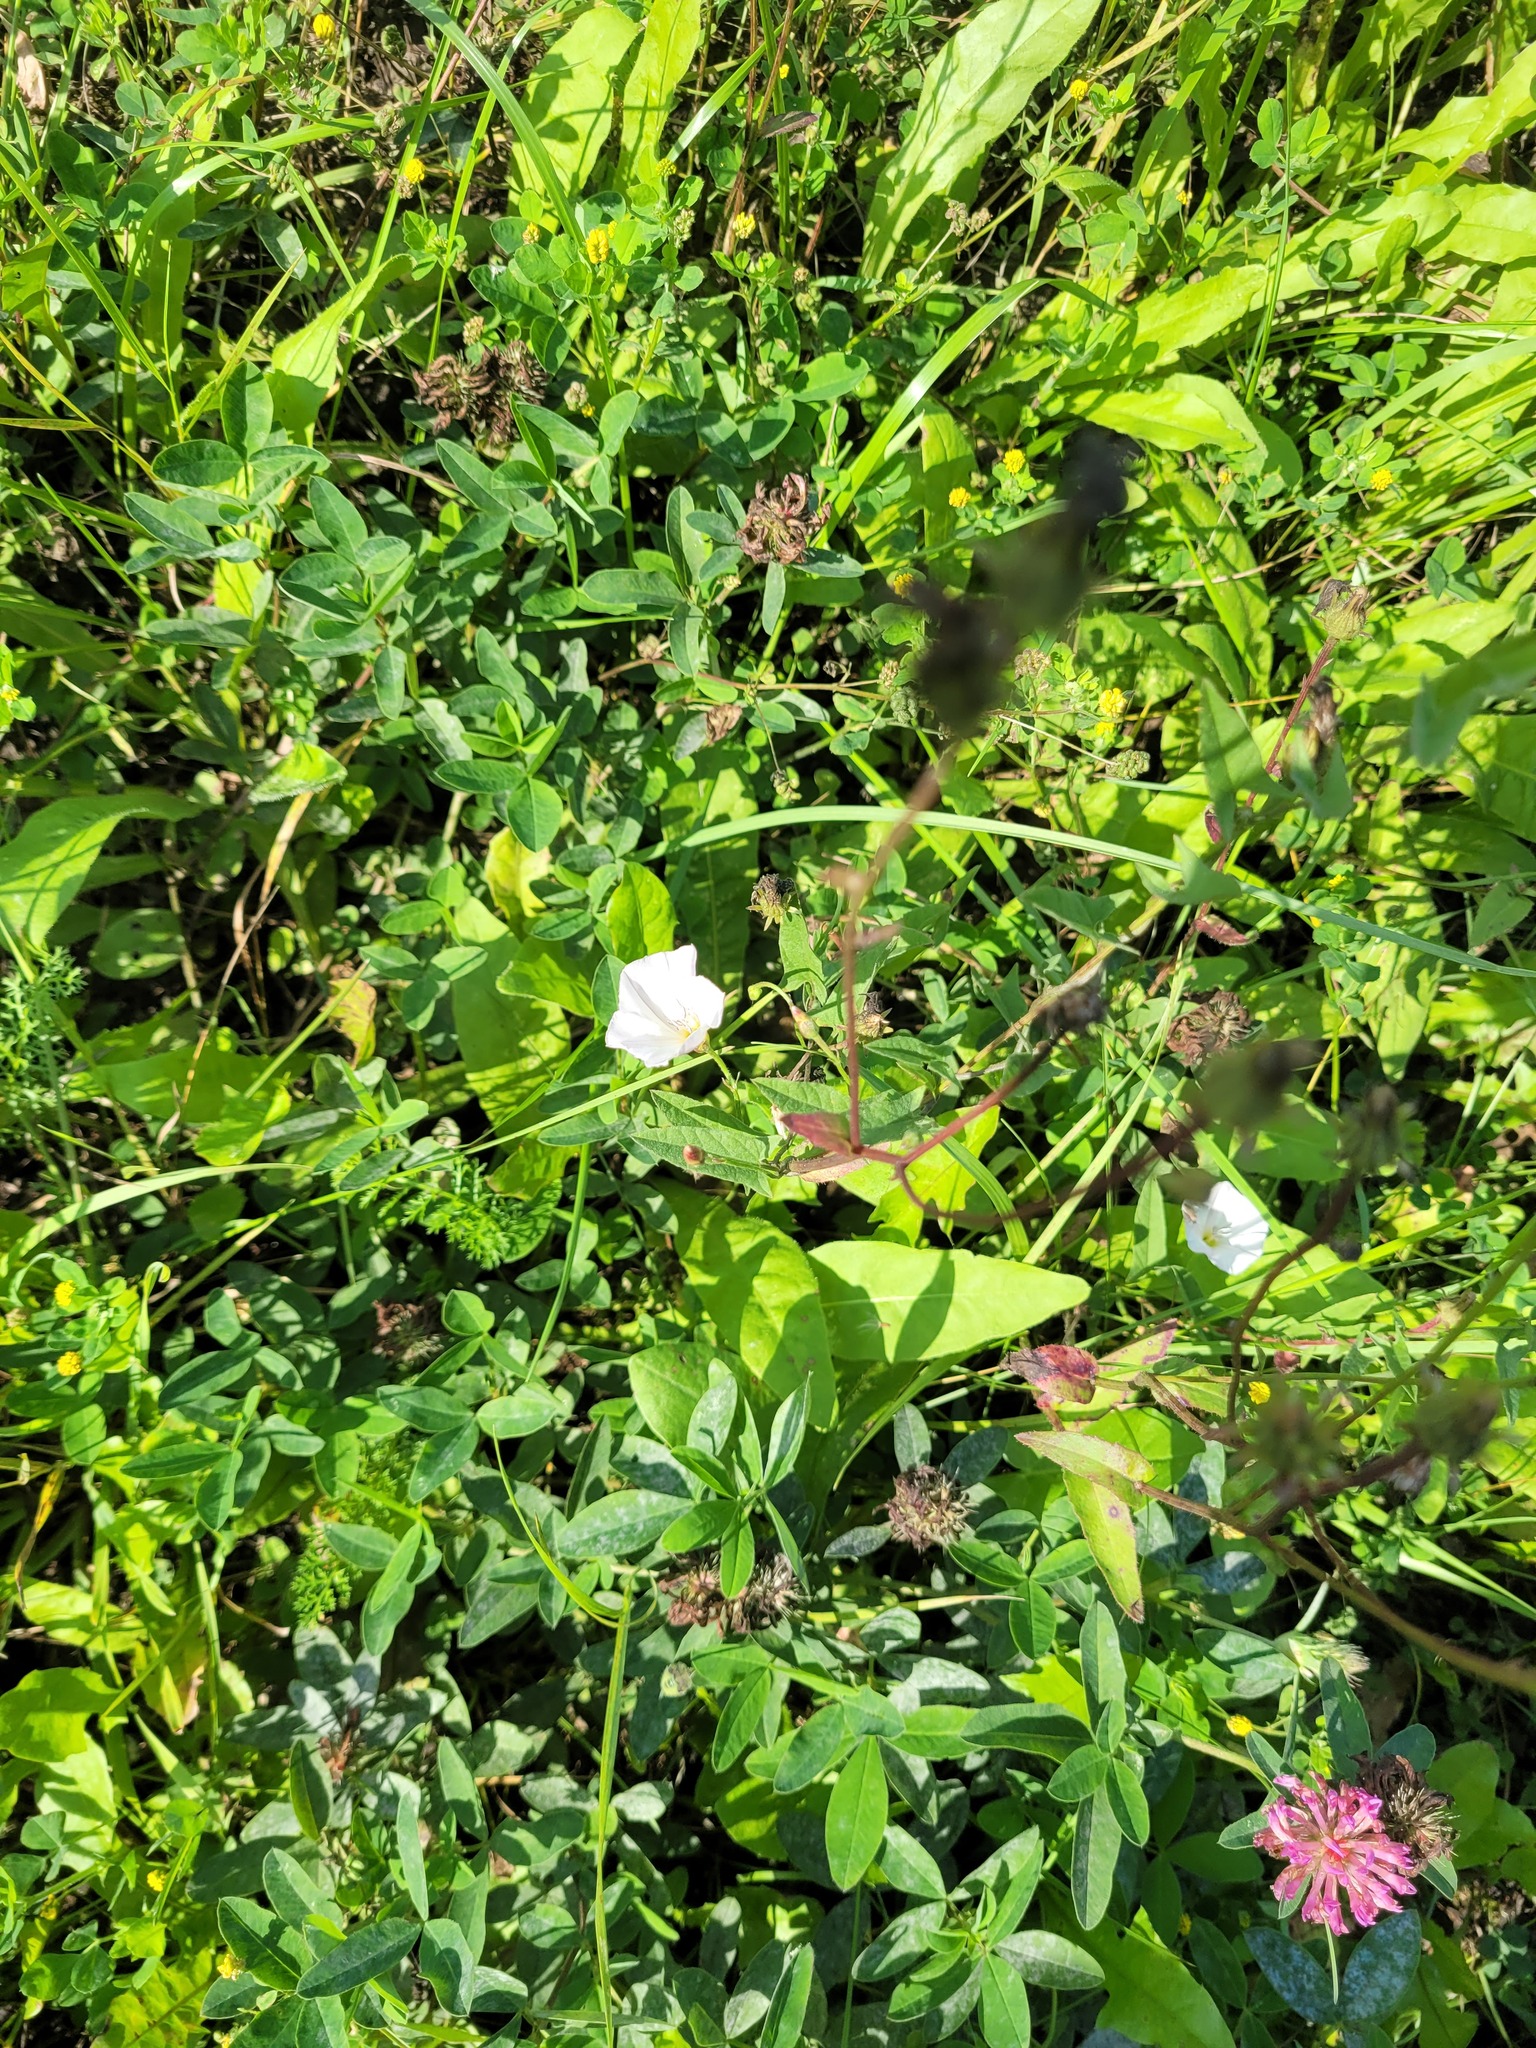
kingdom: Plantae
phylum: Tracheophyta
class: Magnoliopsida
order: Solanales
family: Convolvulaceae
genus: Convolvulus
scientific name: Convolvulus arvensis
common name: Field bindweed
